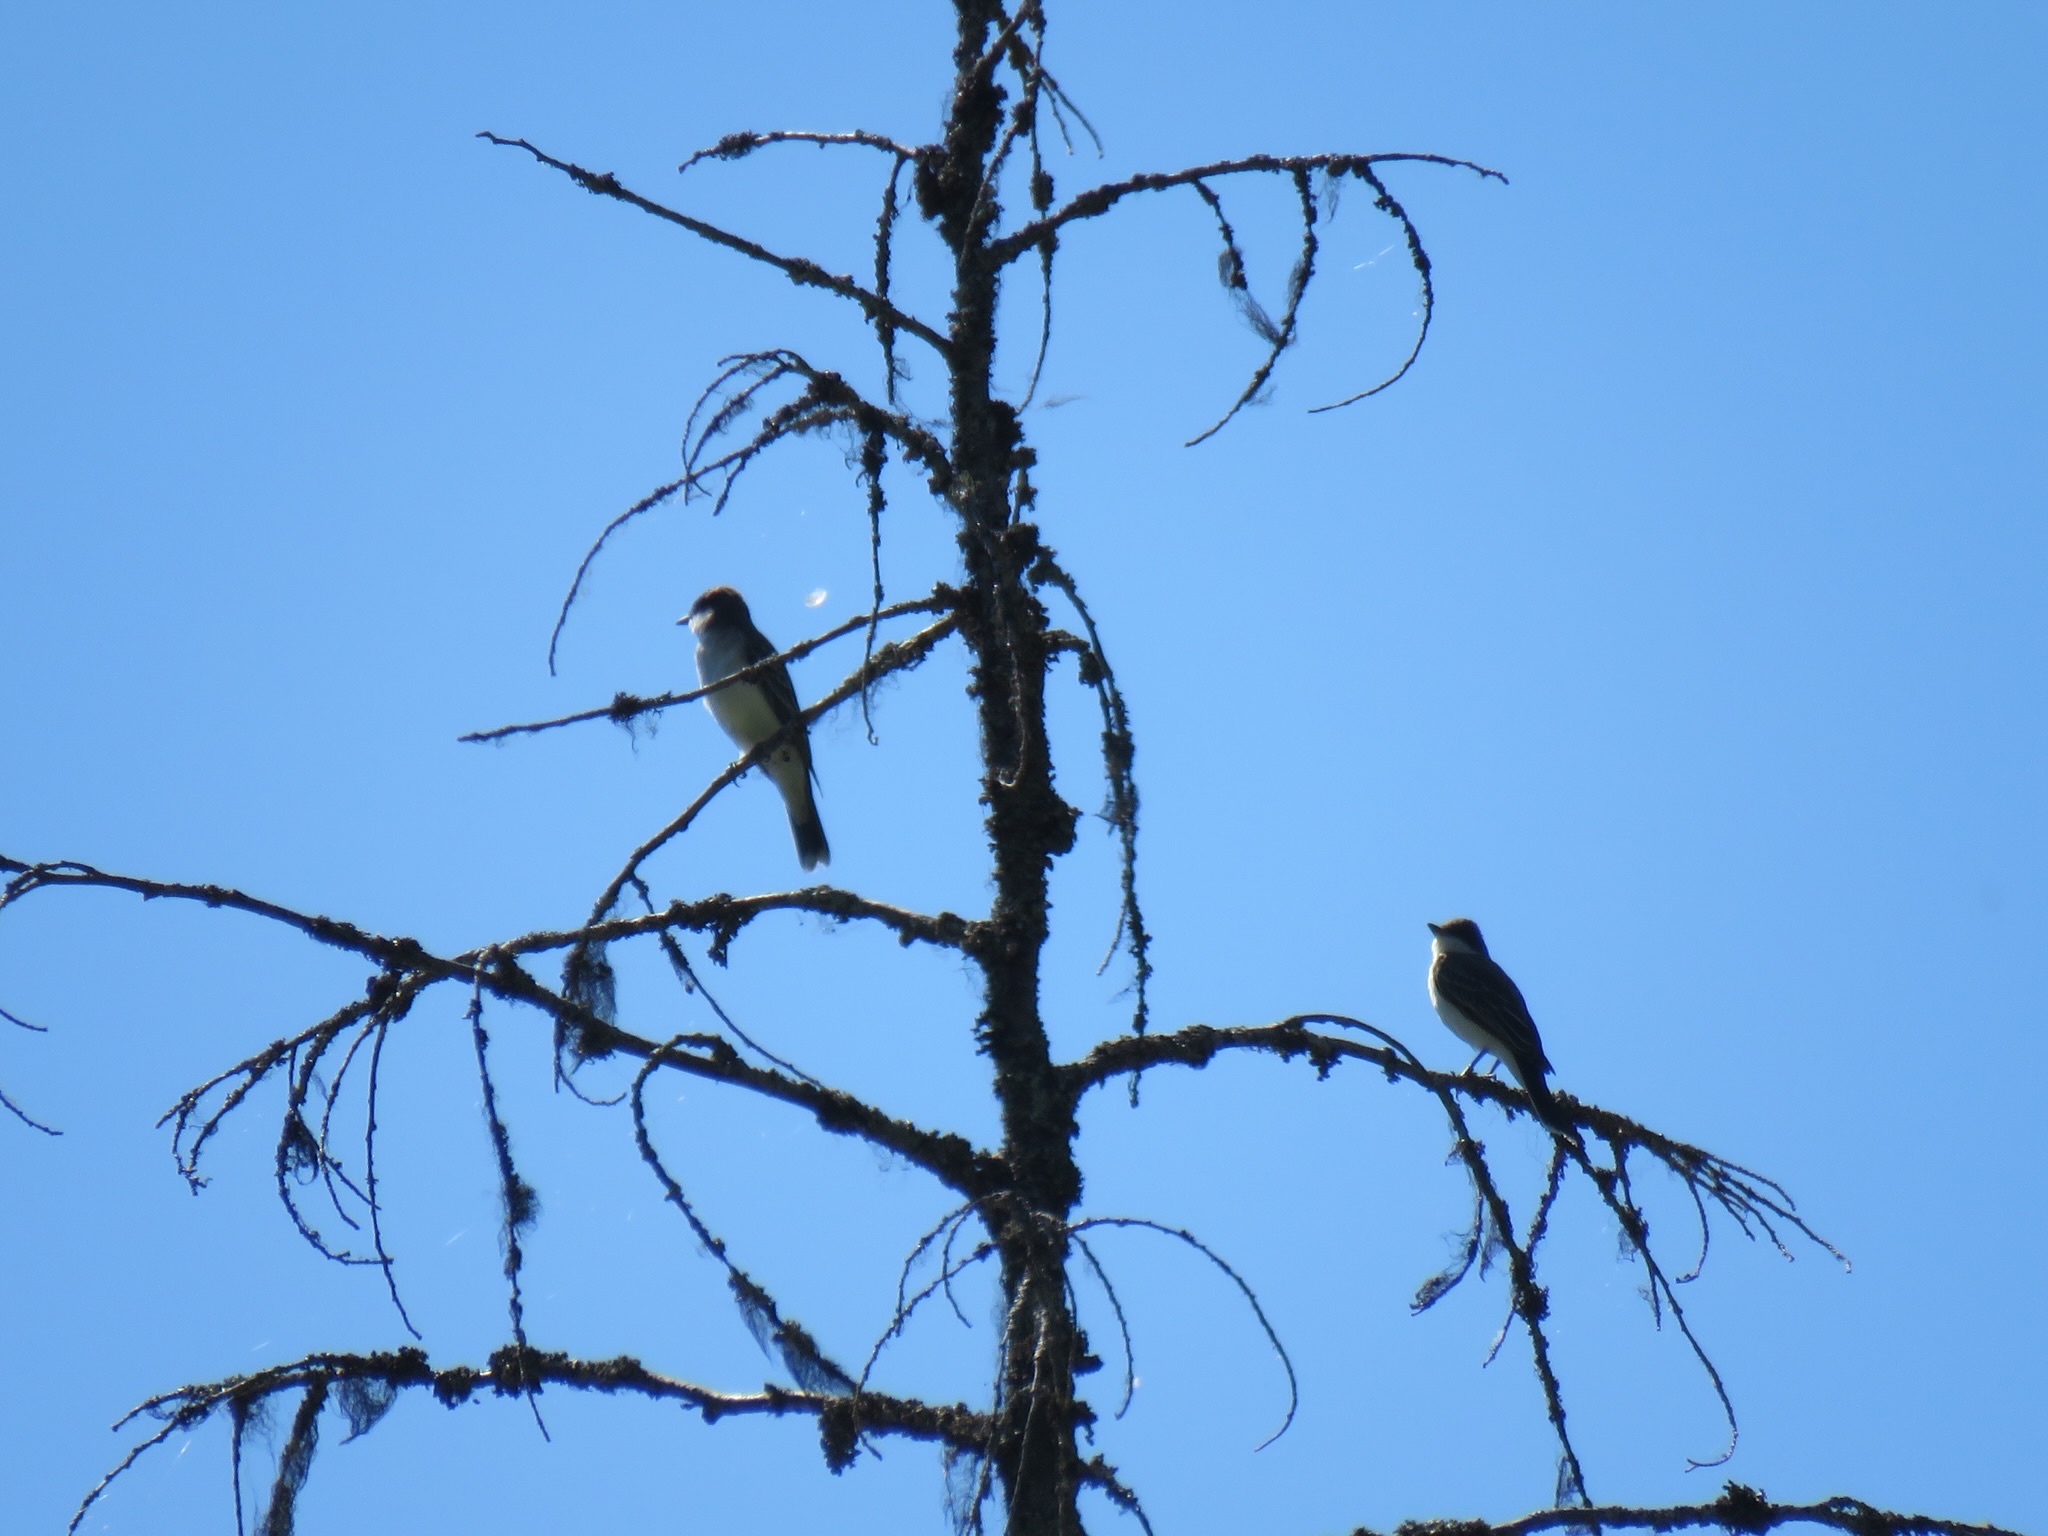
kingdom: Animalia
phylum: Chordata
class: Aves
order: Passeriformes
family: Tyrannidae
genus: Tyrannus
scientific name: Tyrannus tyrannus
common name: Eastern kingbird
